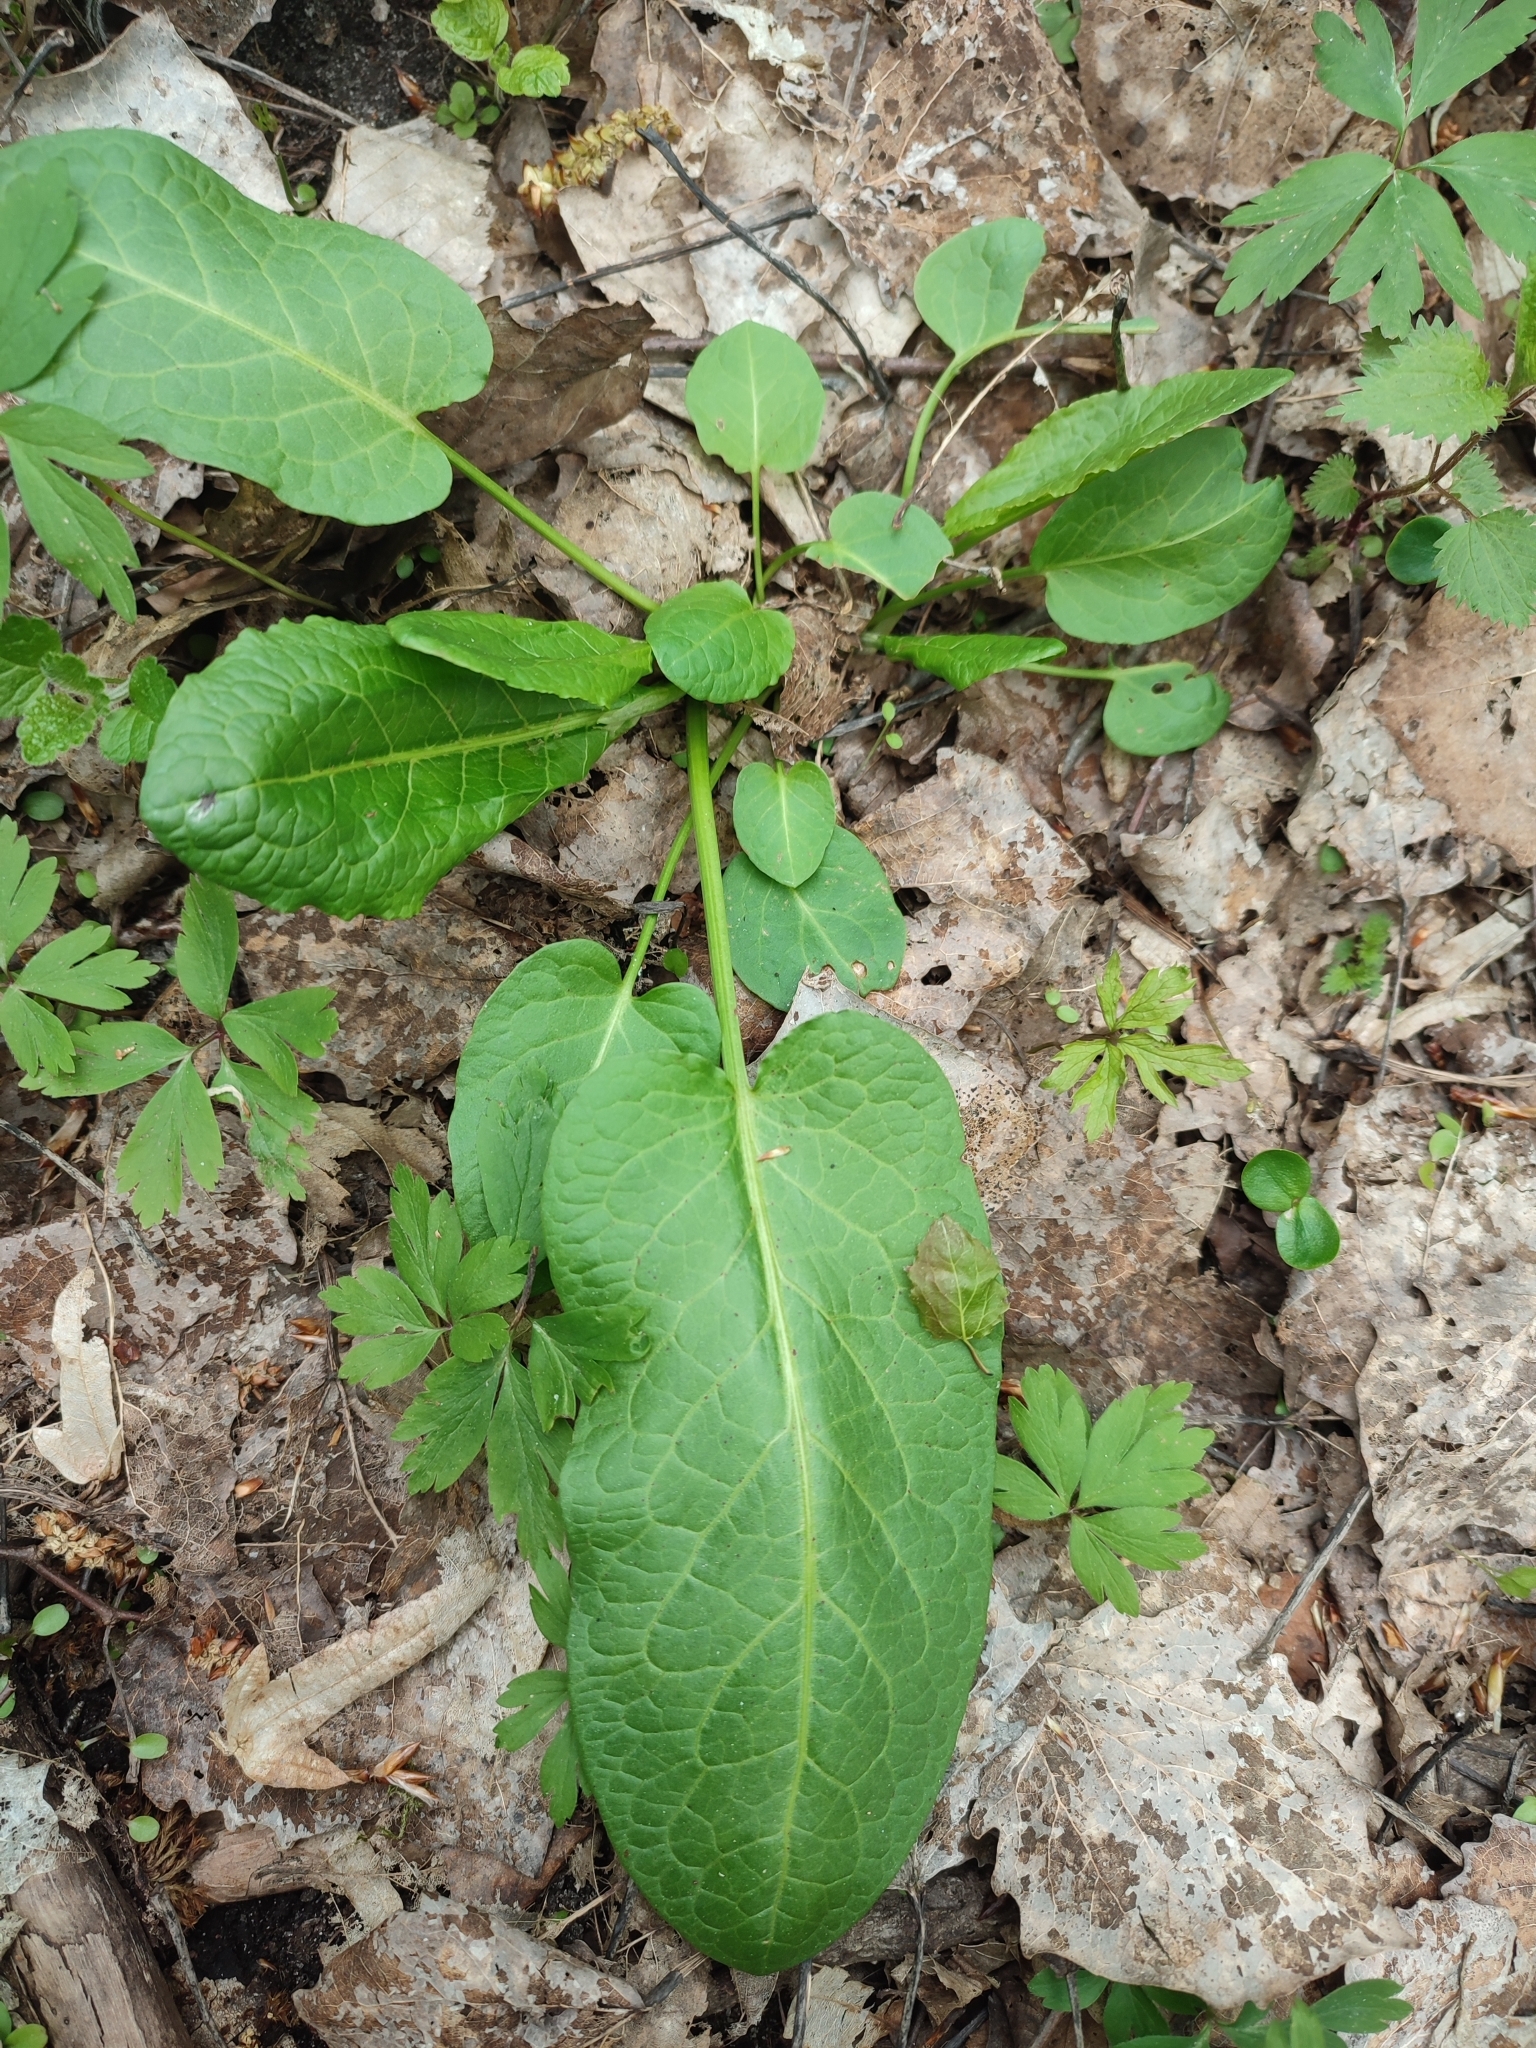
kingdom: Plantae
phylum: Tracheophyta
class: Magnoliopsida
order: Caryophyllales
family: Polygonaceae
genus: Rumex
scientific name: Rumex obtusifolius
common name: Bitter dock
